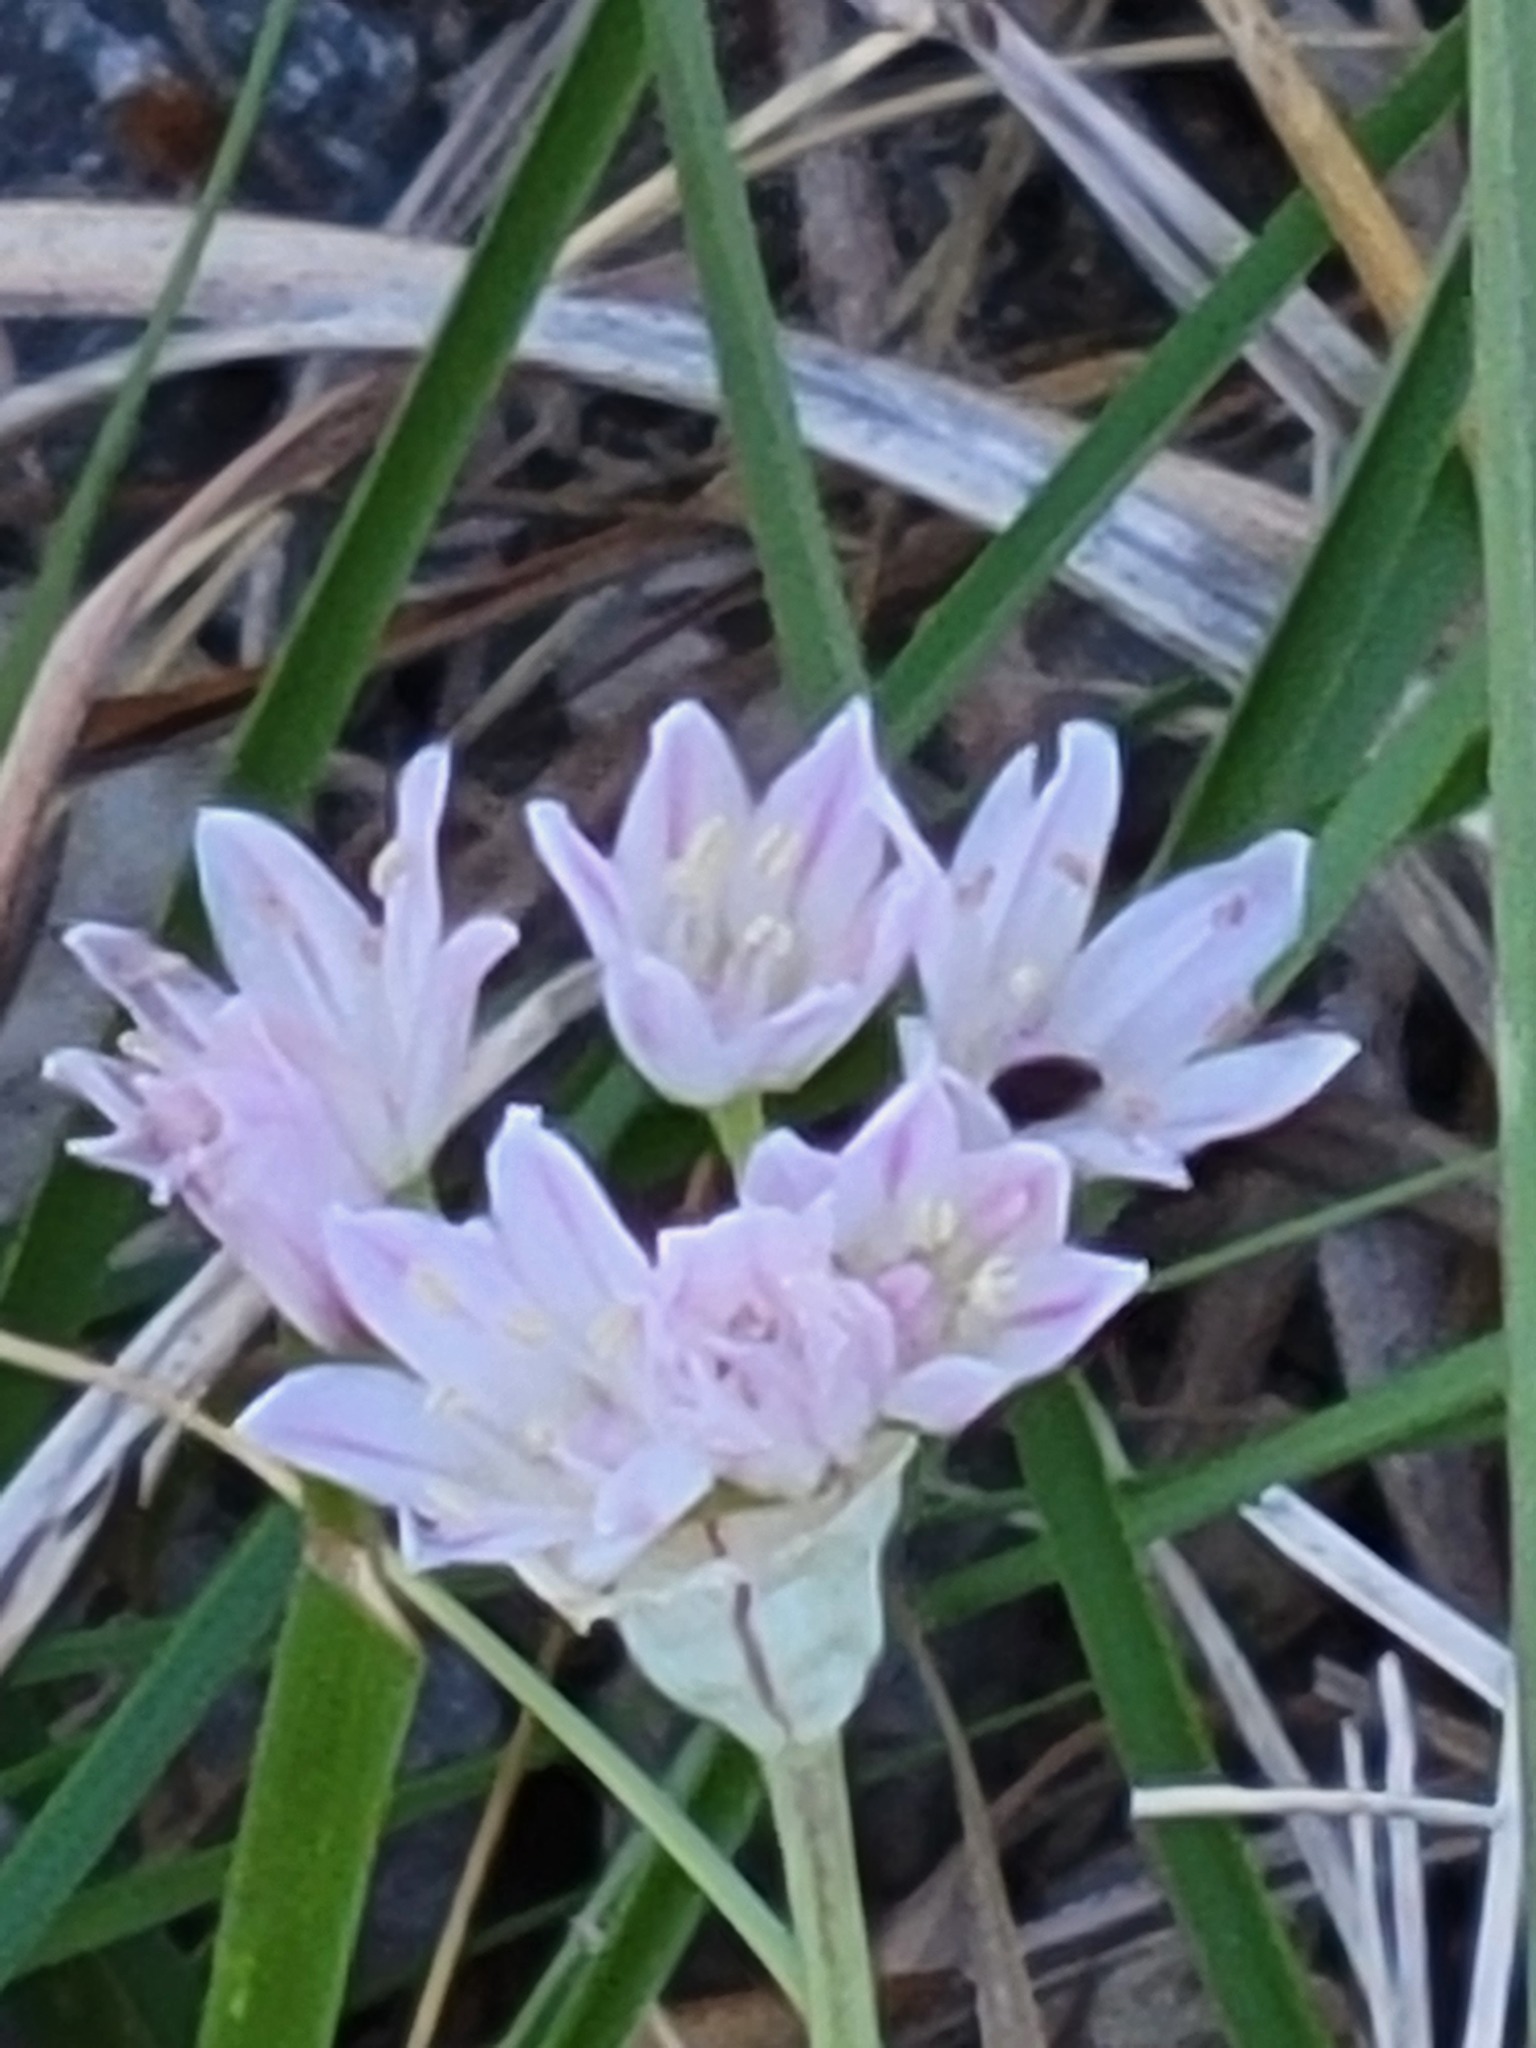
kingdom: Plantae
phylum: Tracheophyta
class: Liliopsida
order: Asparagales
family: Amaryllidaceae
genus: Allium
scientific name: Allium drummondii
